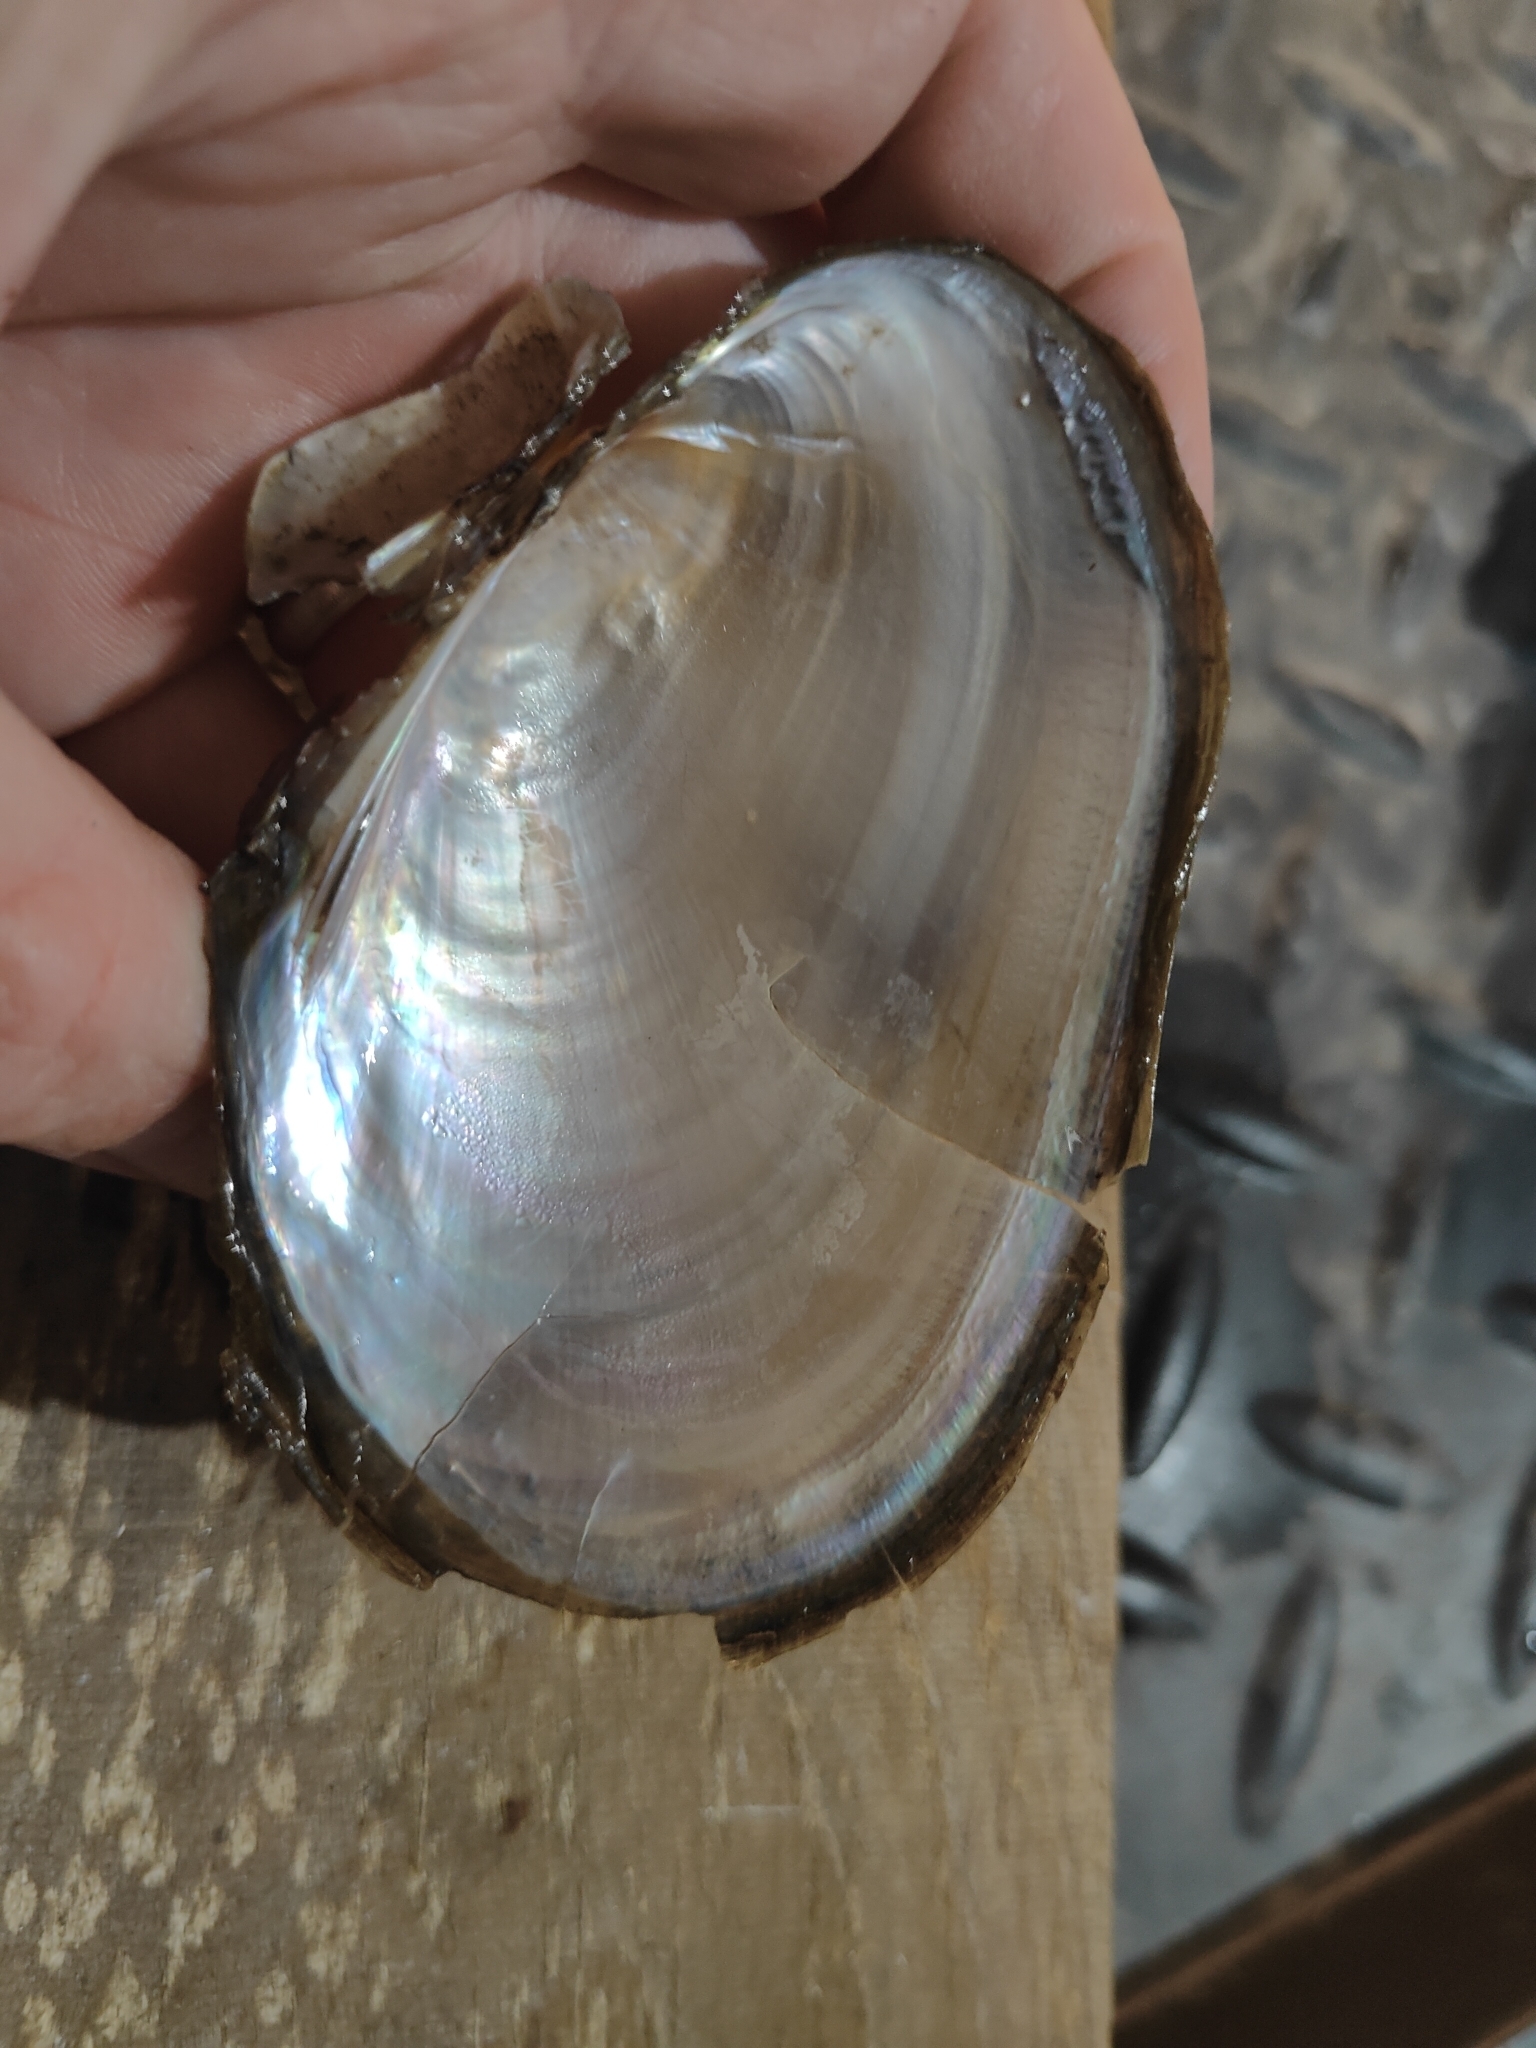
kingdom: Animalia
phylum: Mollusca
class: Bivalvia
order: Unionida
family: Unionidae
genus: Potamilus
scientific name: Potamilus fragilis
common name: Fragile papershell
